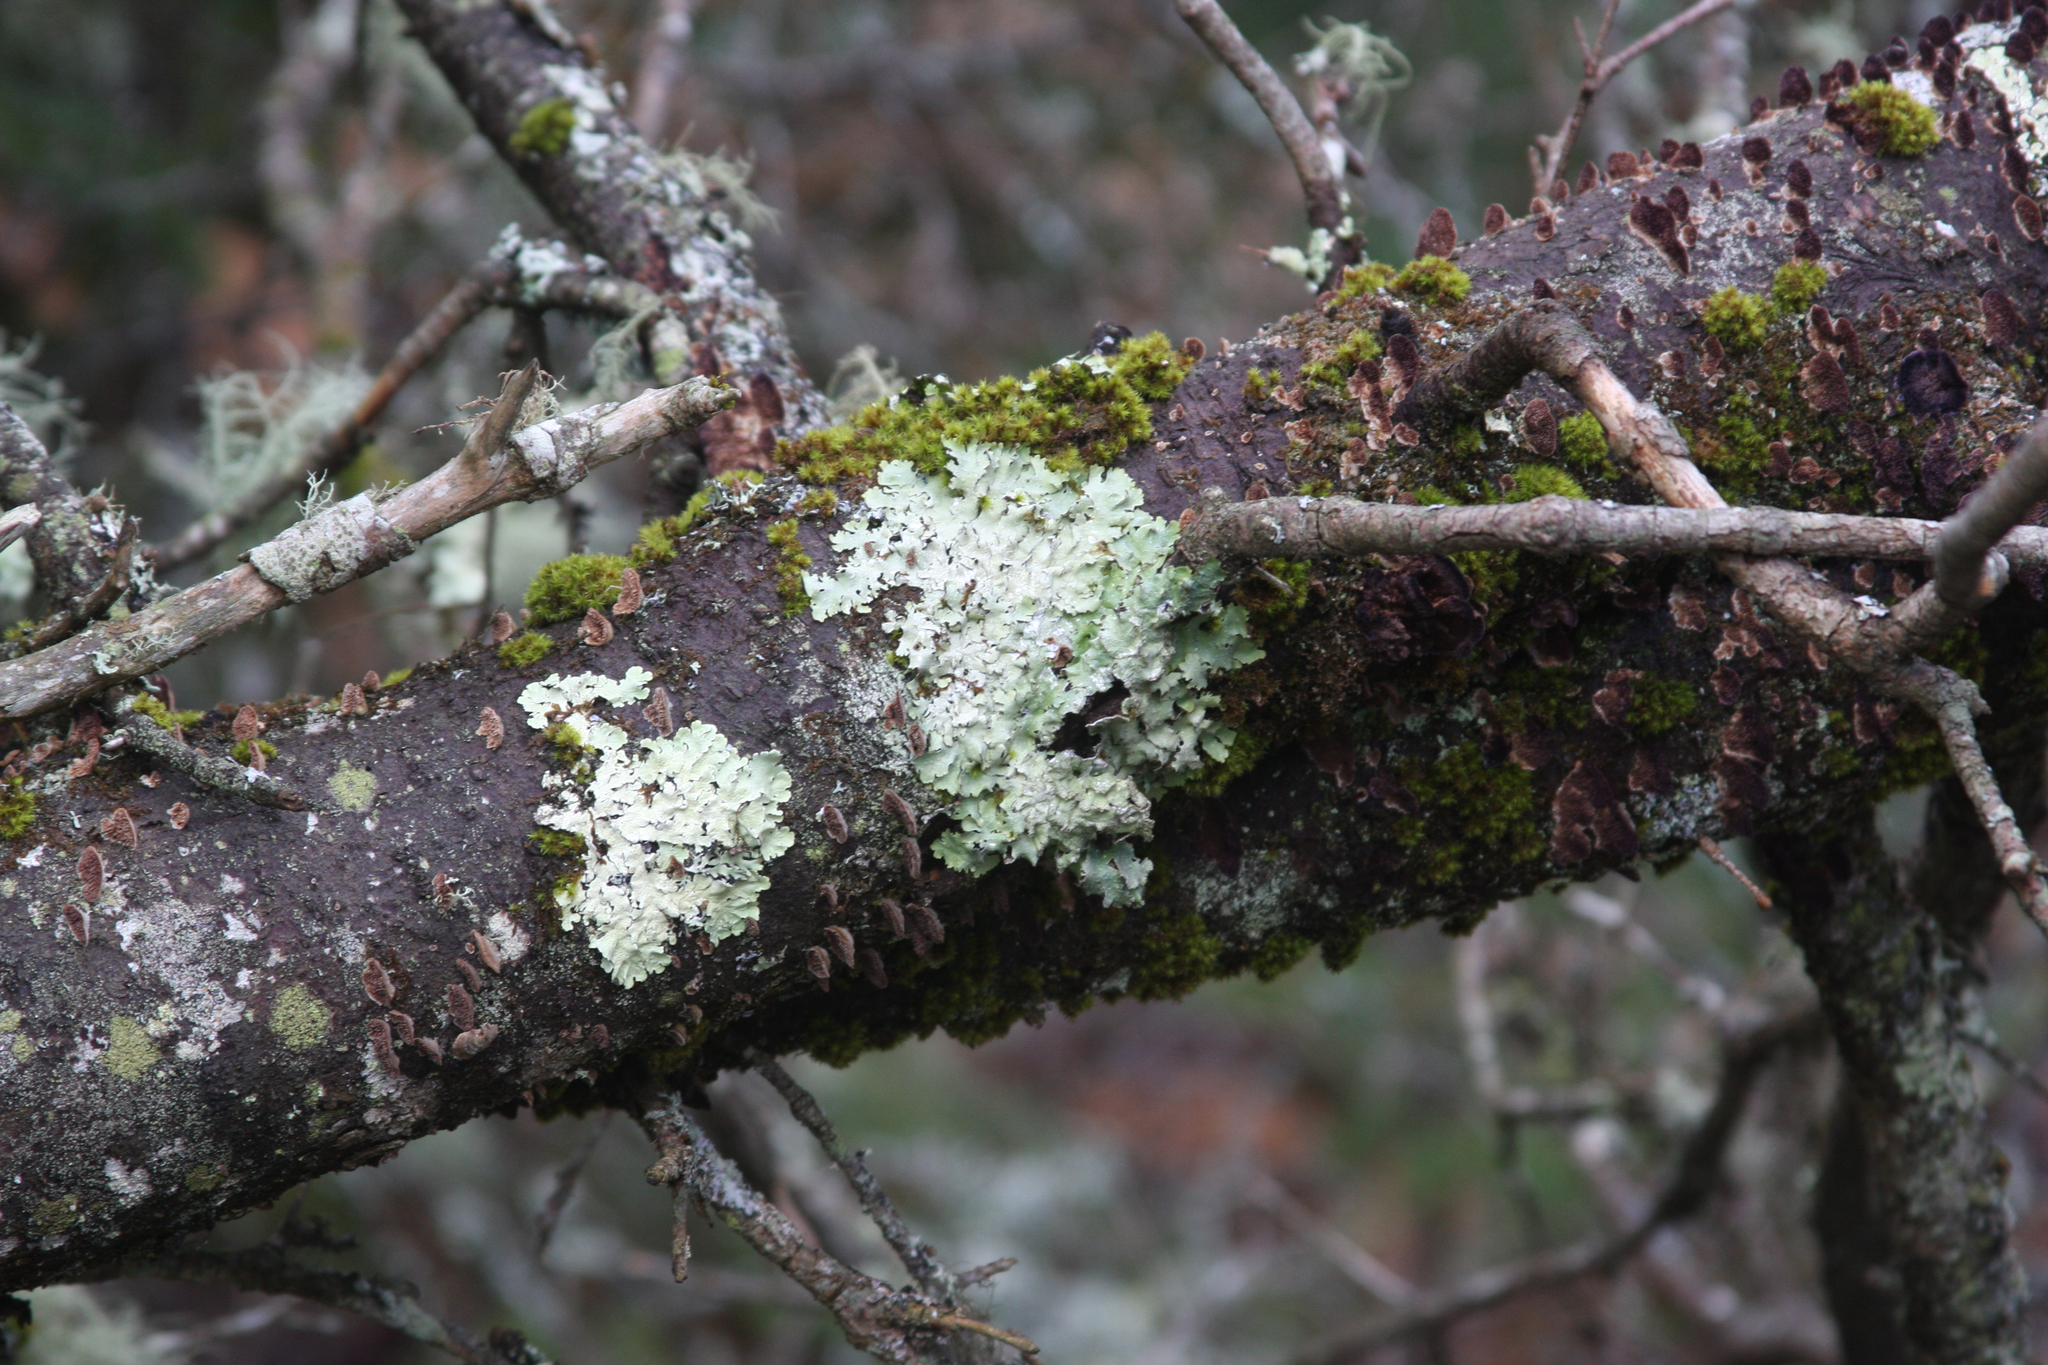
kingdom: Plantae
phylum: Bryophyta
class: Bryopsida
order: Orthotrichales
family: Orthotrichaceae
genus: Ulota
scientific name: Ulota crispa
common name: Crisped pincushion moss
